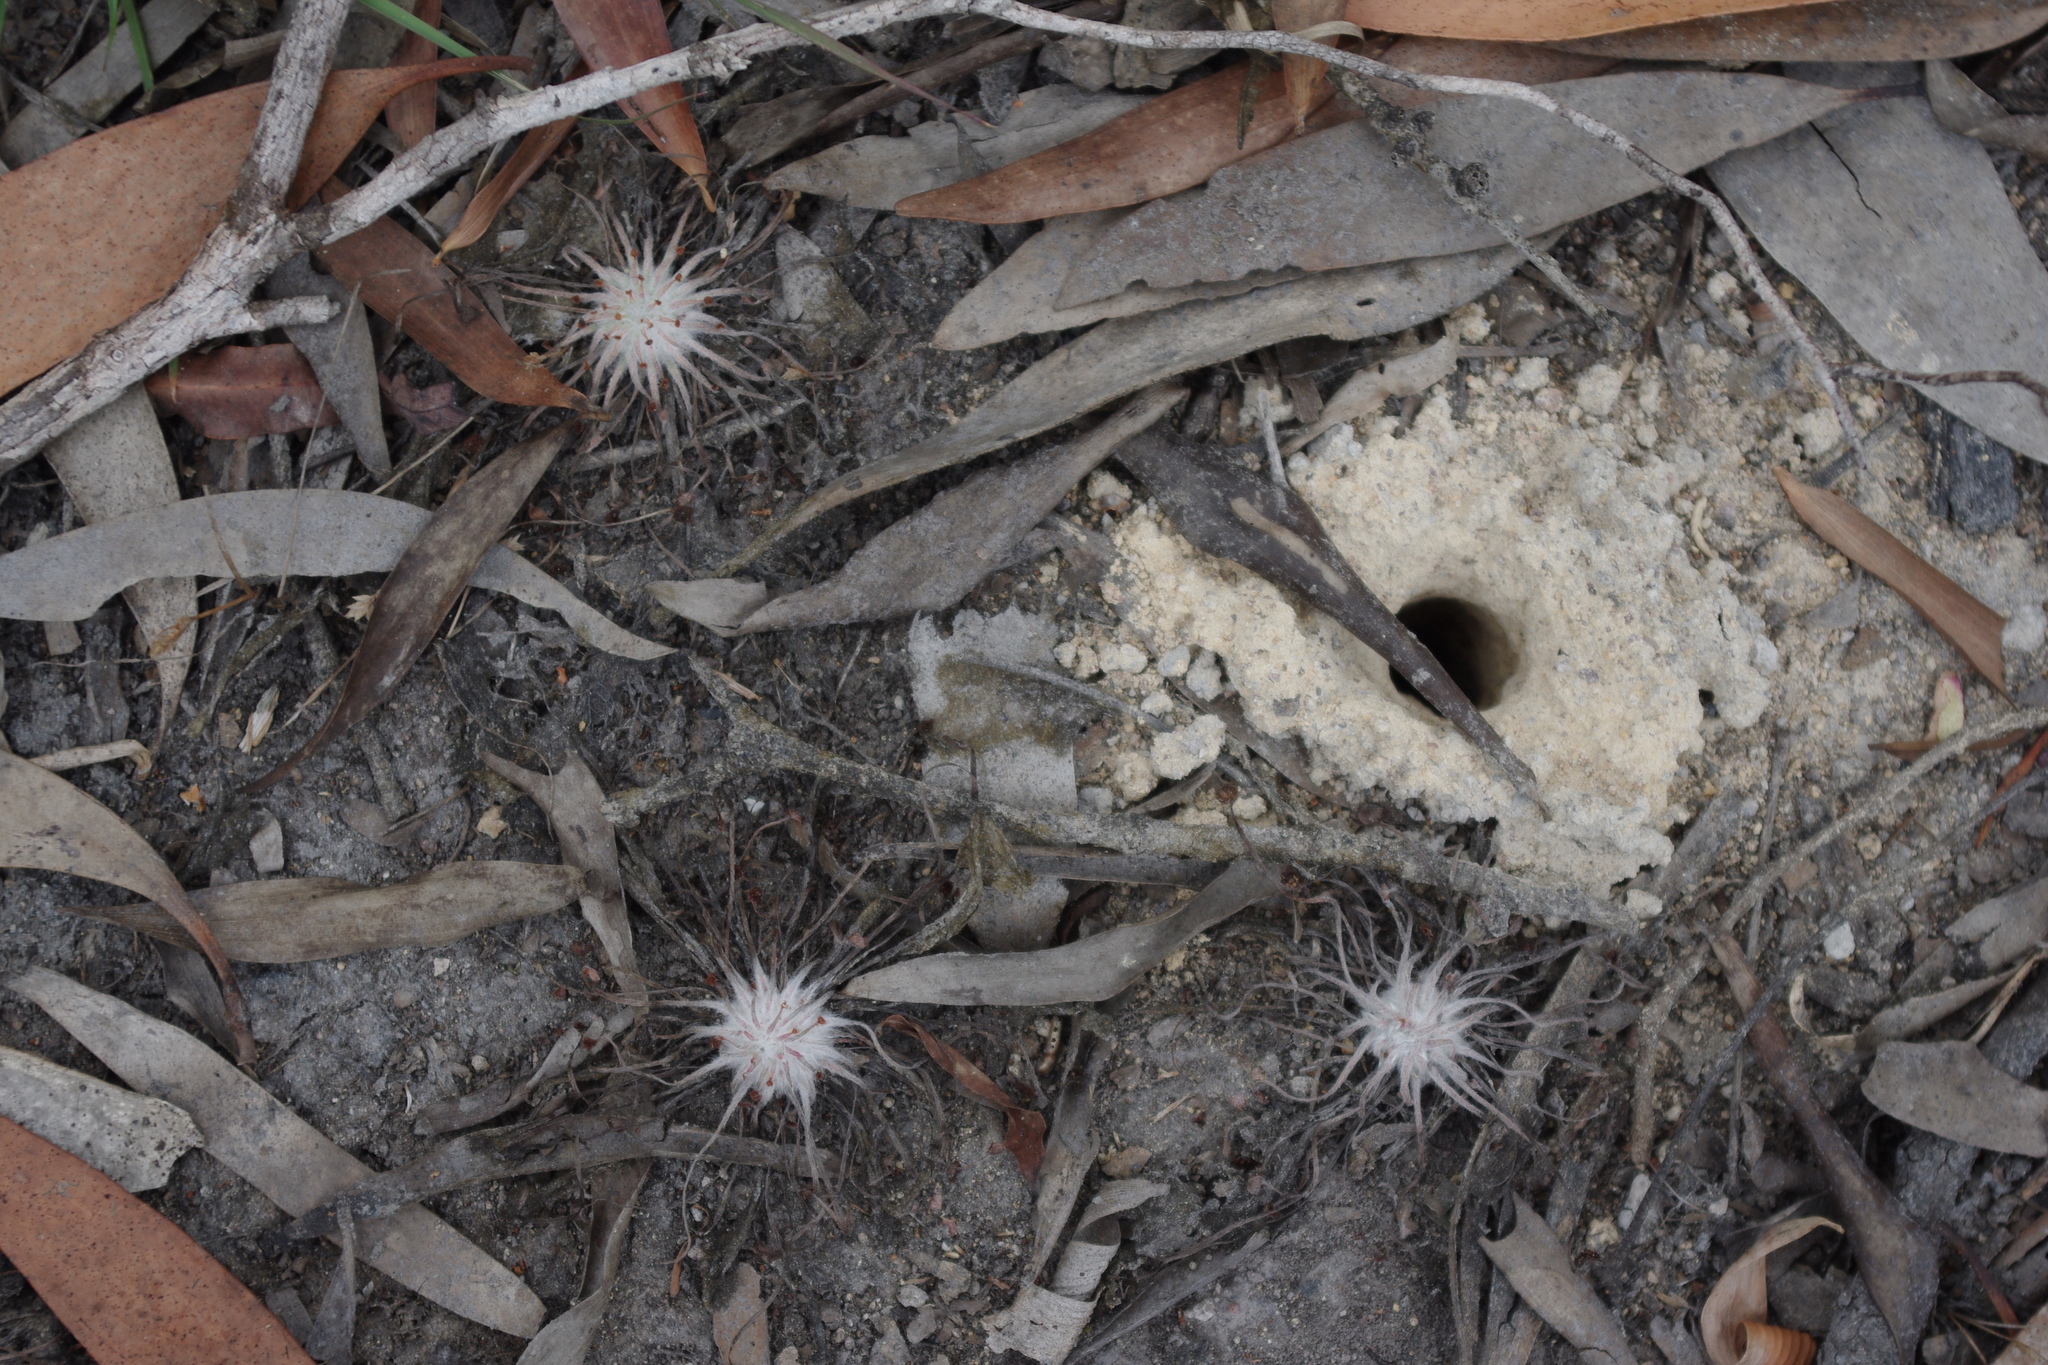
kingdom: Plantae
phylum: Tracheophyta
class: Magnoliopsida
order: Caryophyllales
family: Droseraceae
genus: Drosera
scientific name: Drosera petiolaris
